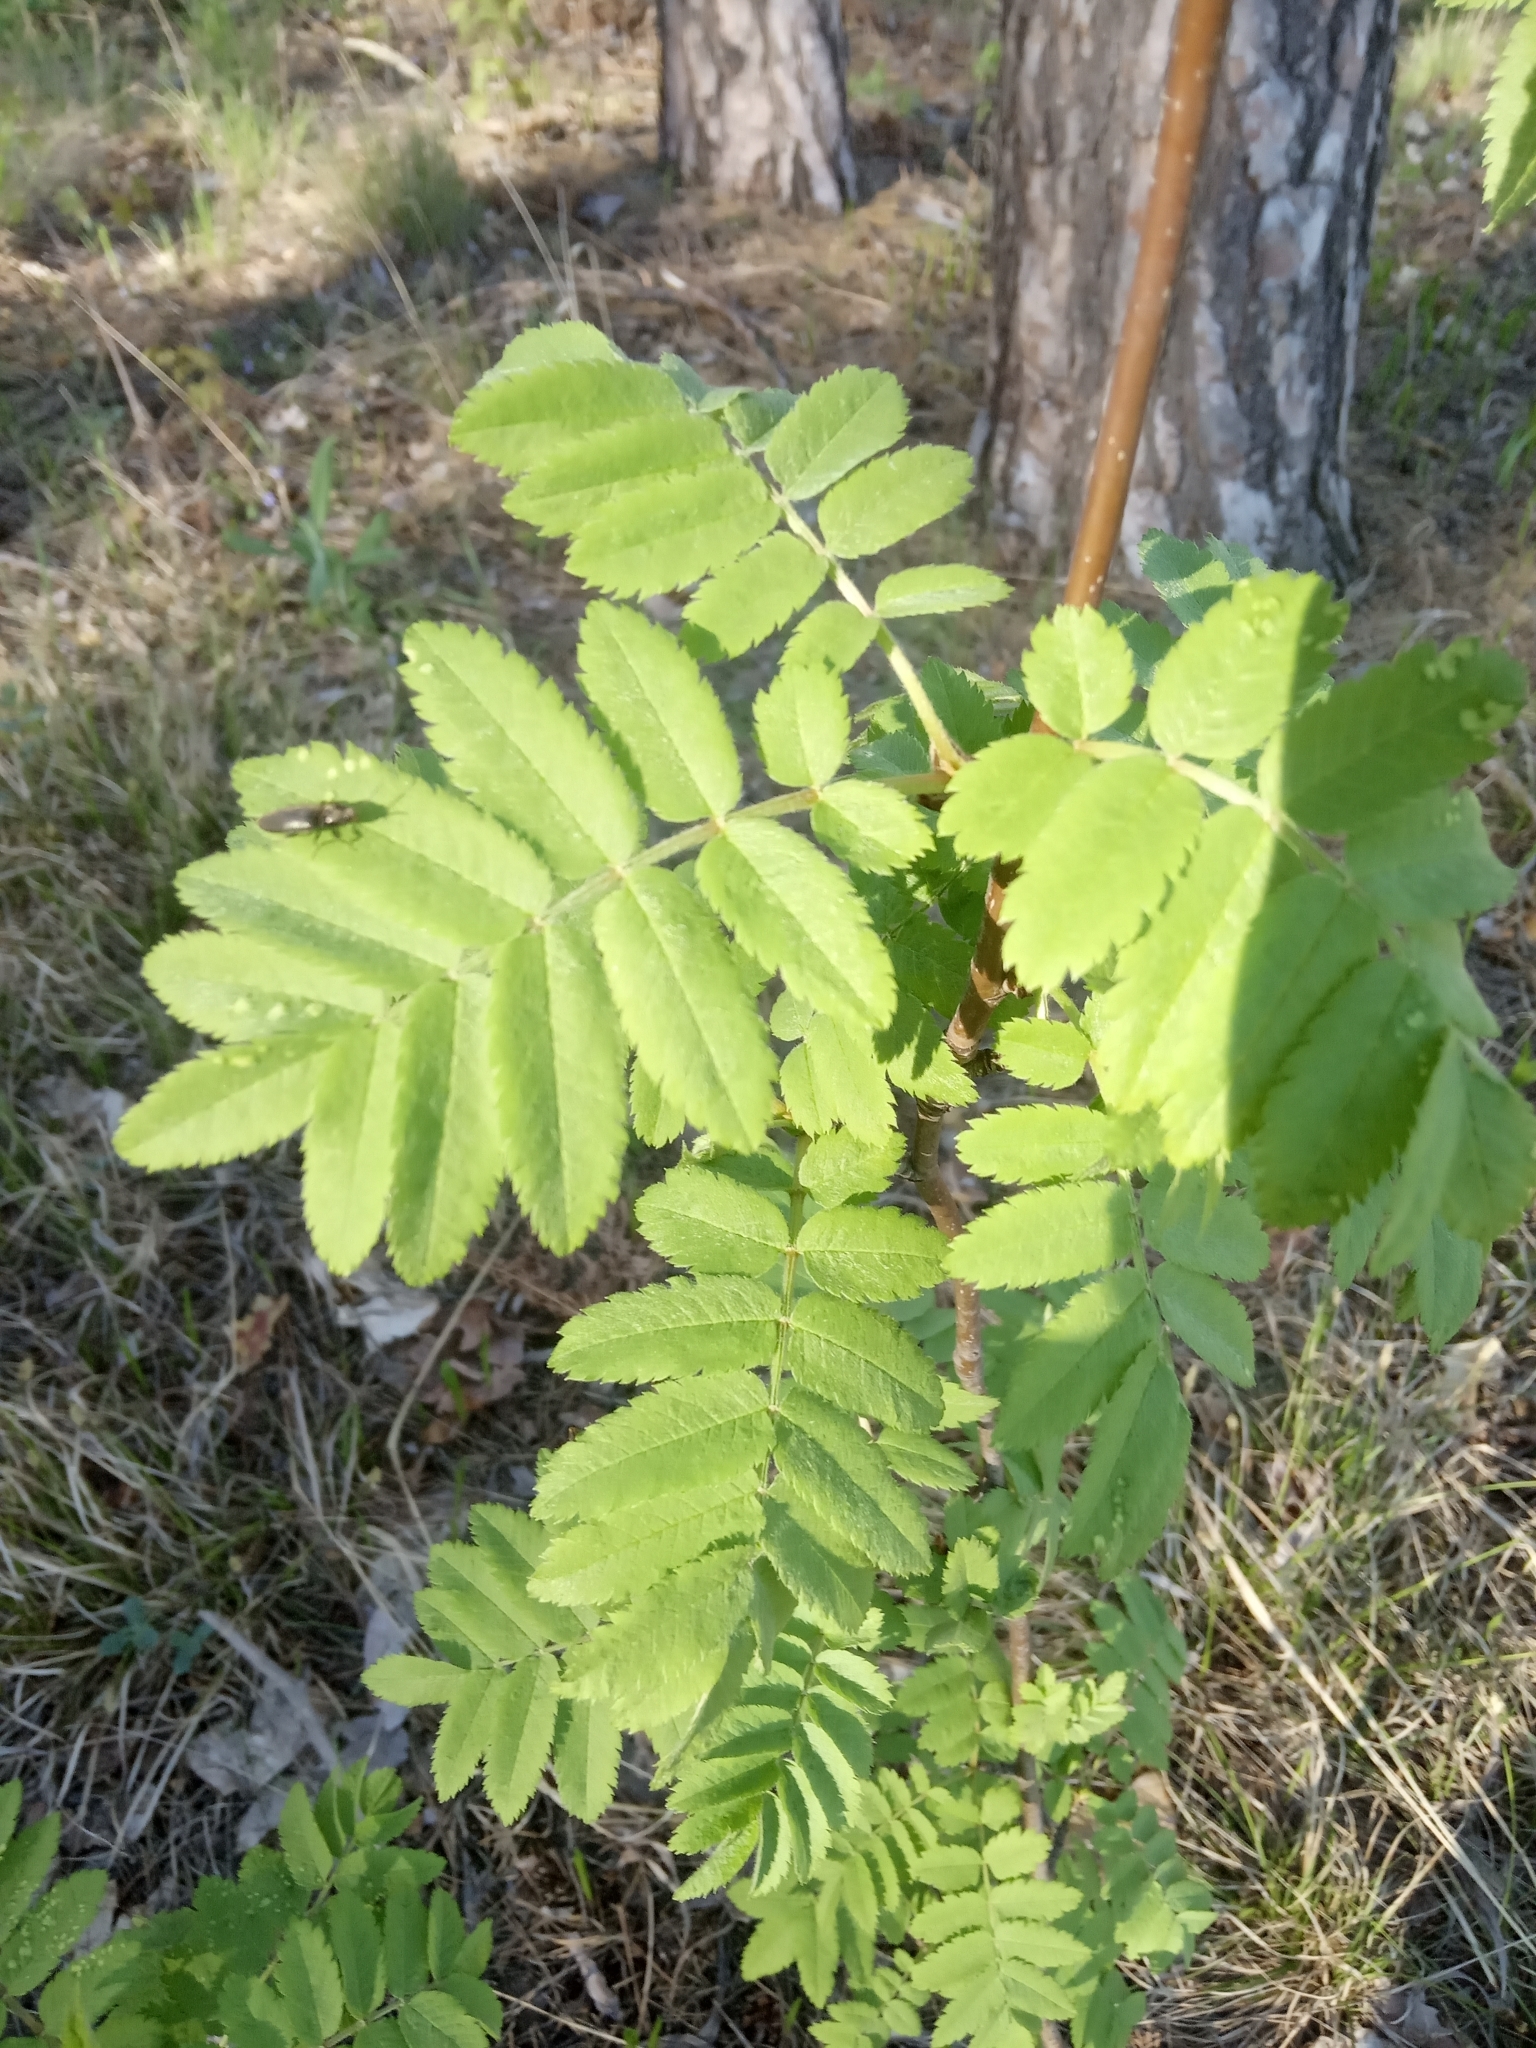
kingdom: Plantae
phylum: Tracheophyta
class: Magnoliopsida
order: Rosales
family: Rosaceae
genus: Sorbus
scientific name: Sorbus aucuparia
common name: Rowan
